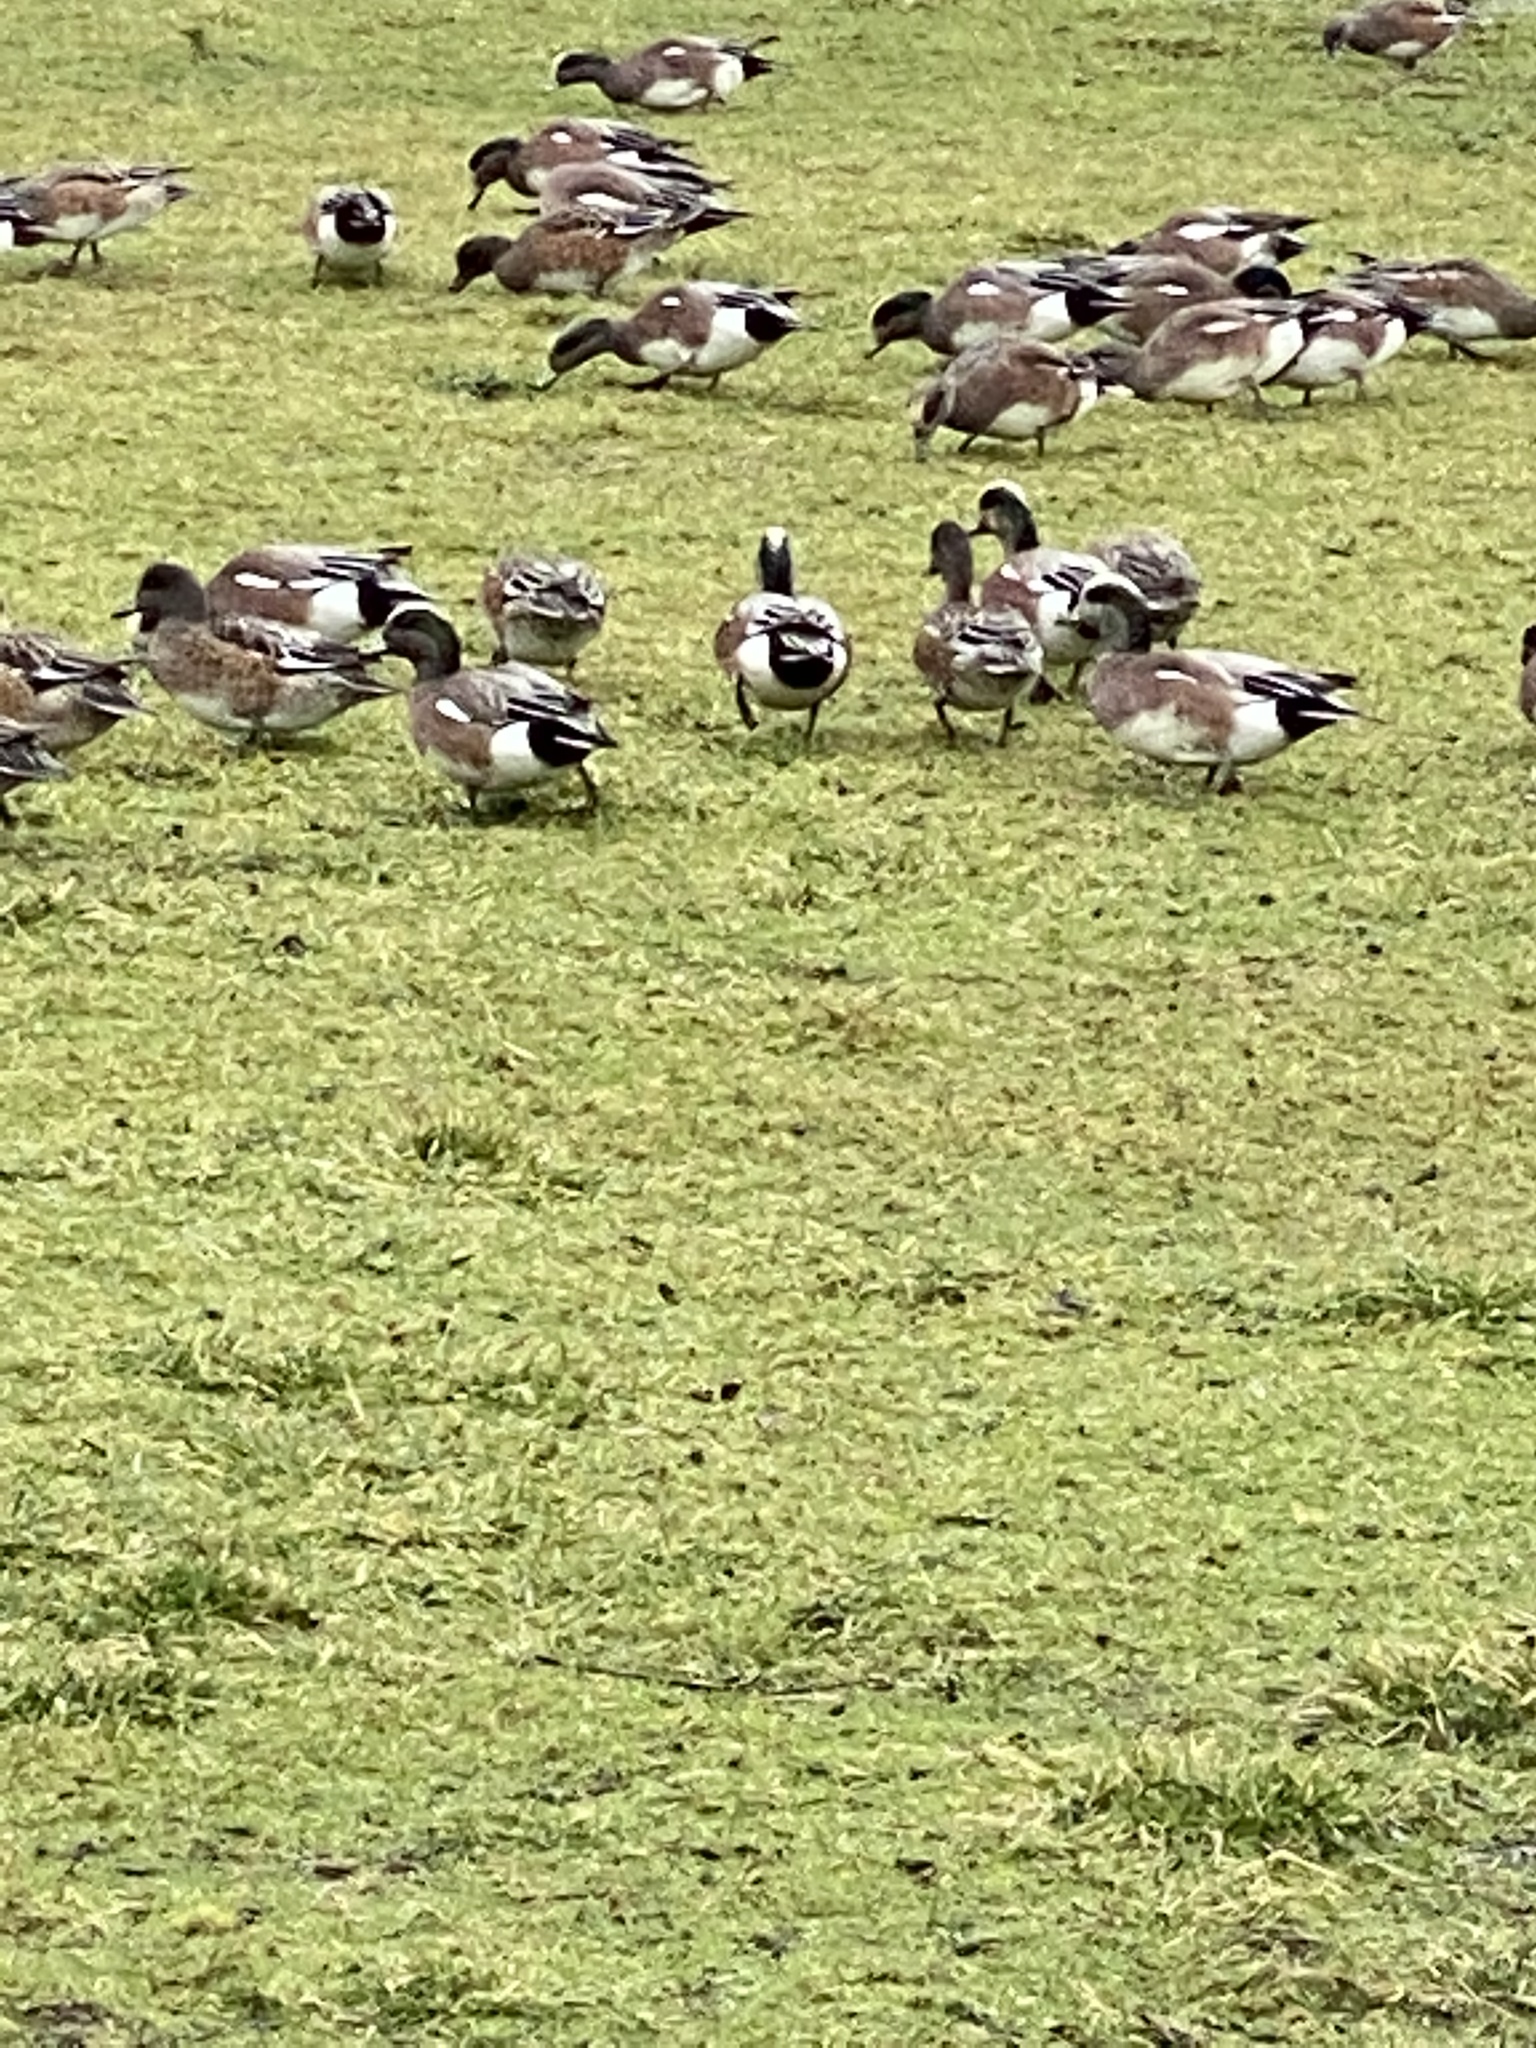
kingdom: Animalia
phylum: Chordata
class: Aves
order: Anseriformes
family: Anatidae
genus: Mareca
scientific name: Mareca americana
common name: American wigeon
